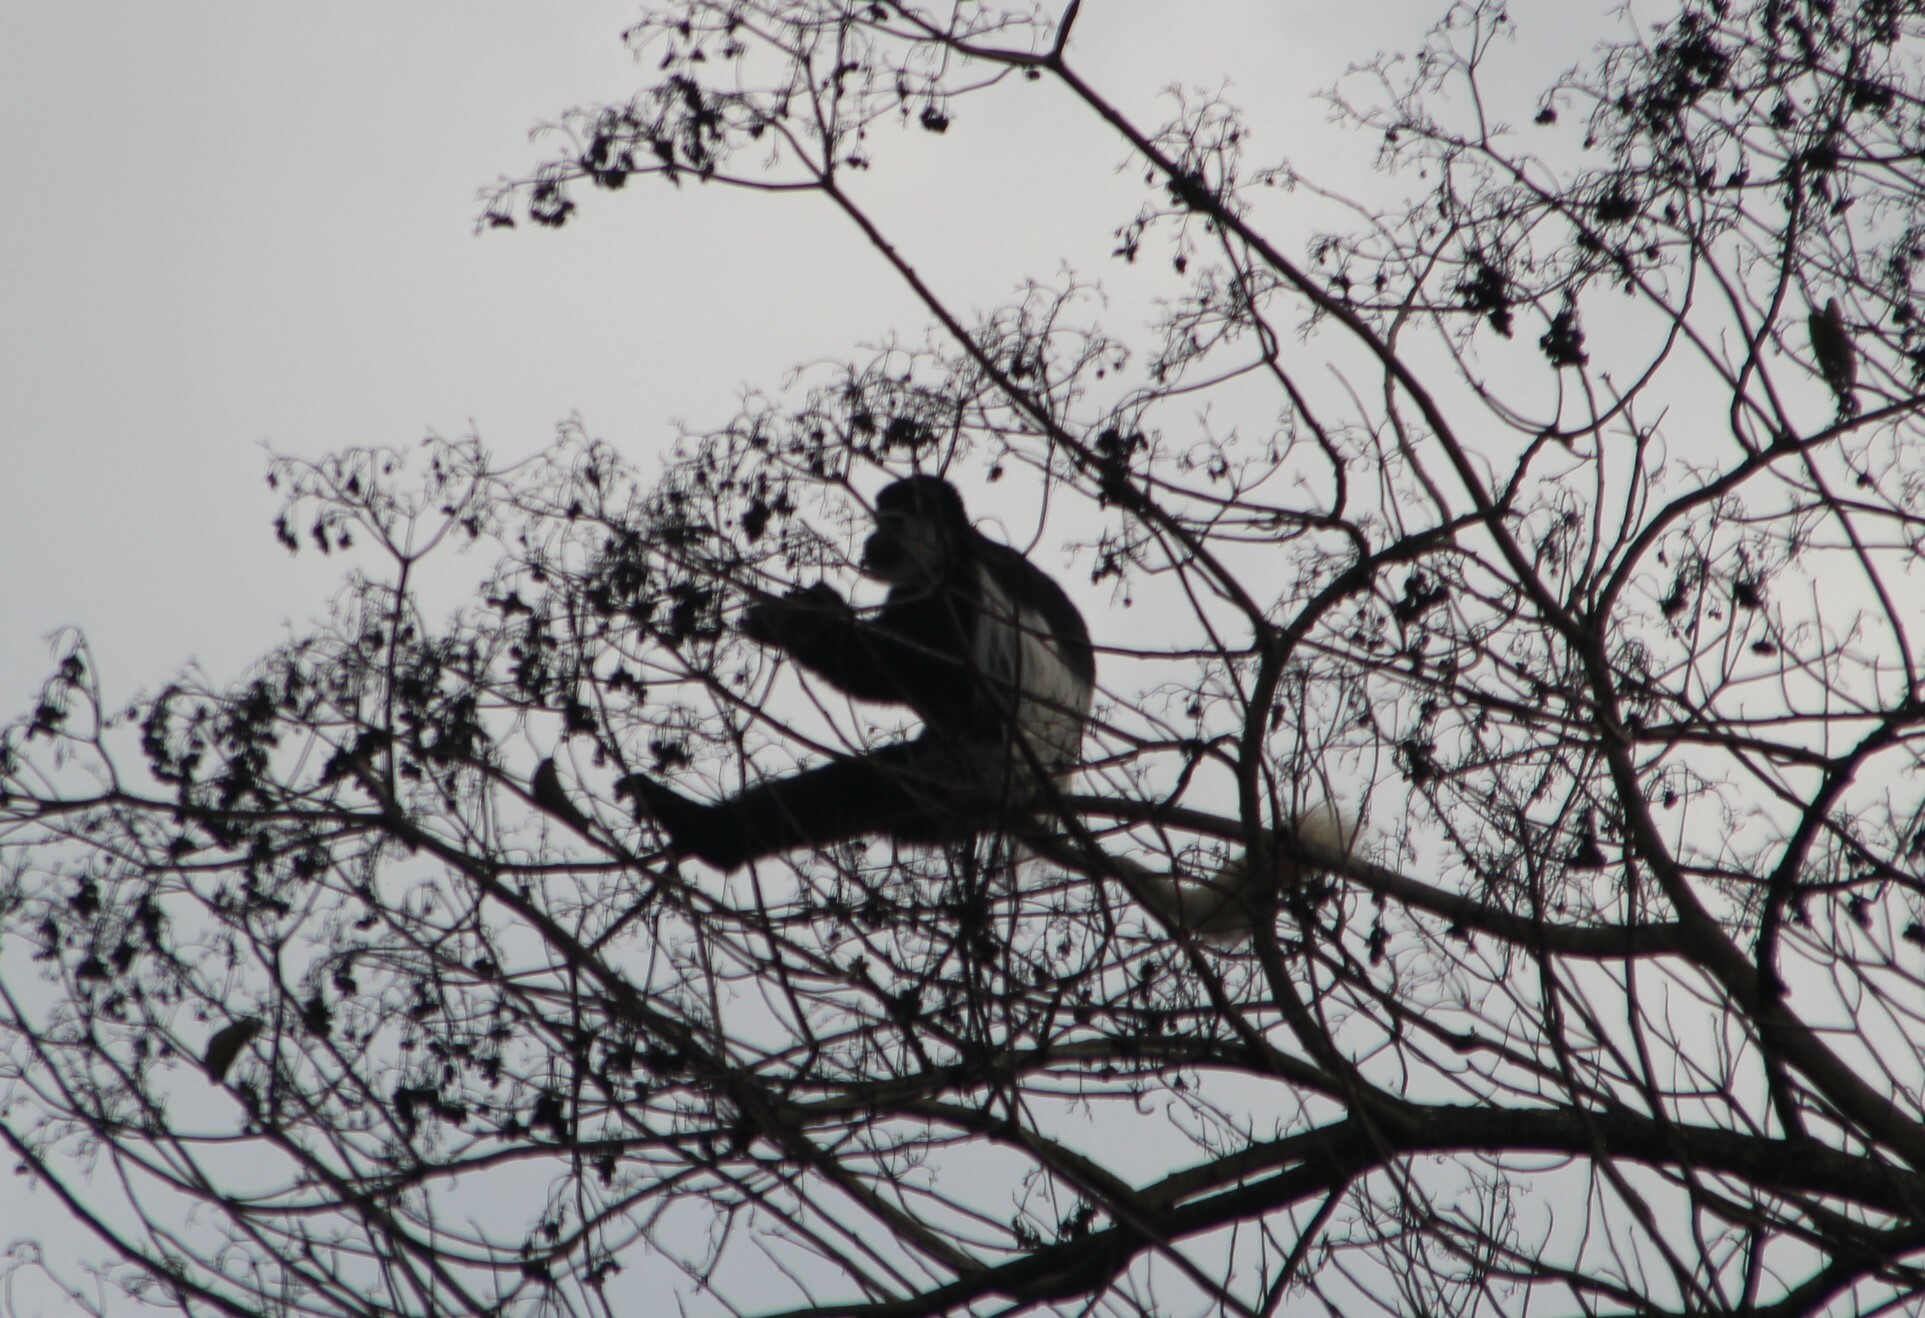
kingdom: Animalia
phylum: Chordata
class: Mammalia
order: Primates
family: Cercopithecidae
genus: Colobus
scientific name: Colobus guereza
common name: Mantled guereza
